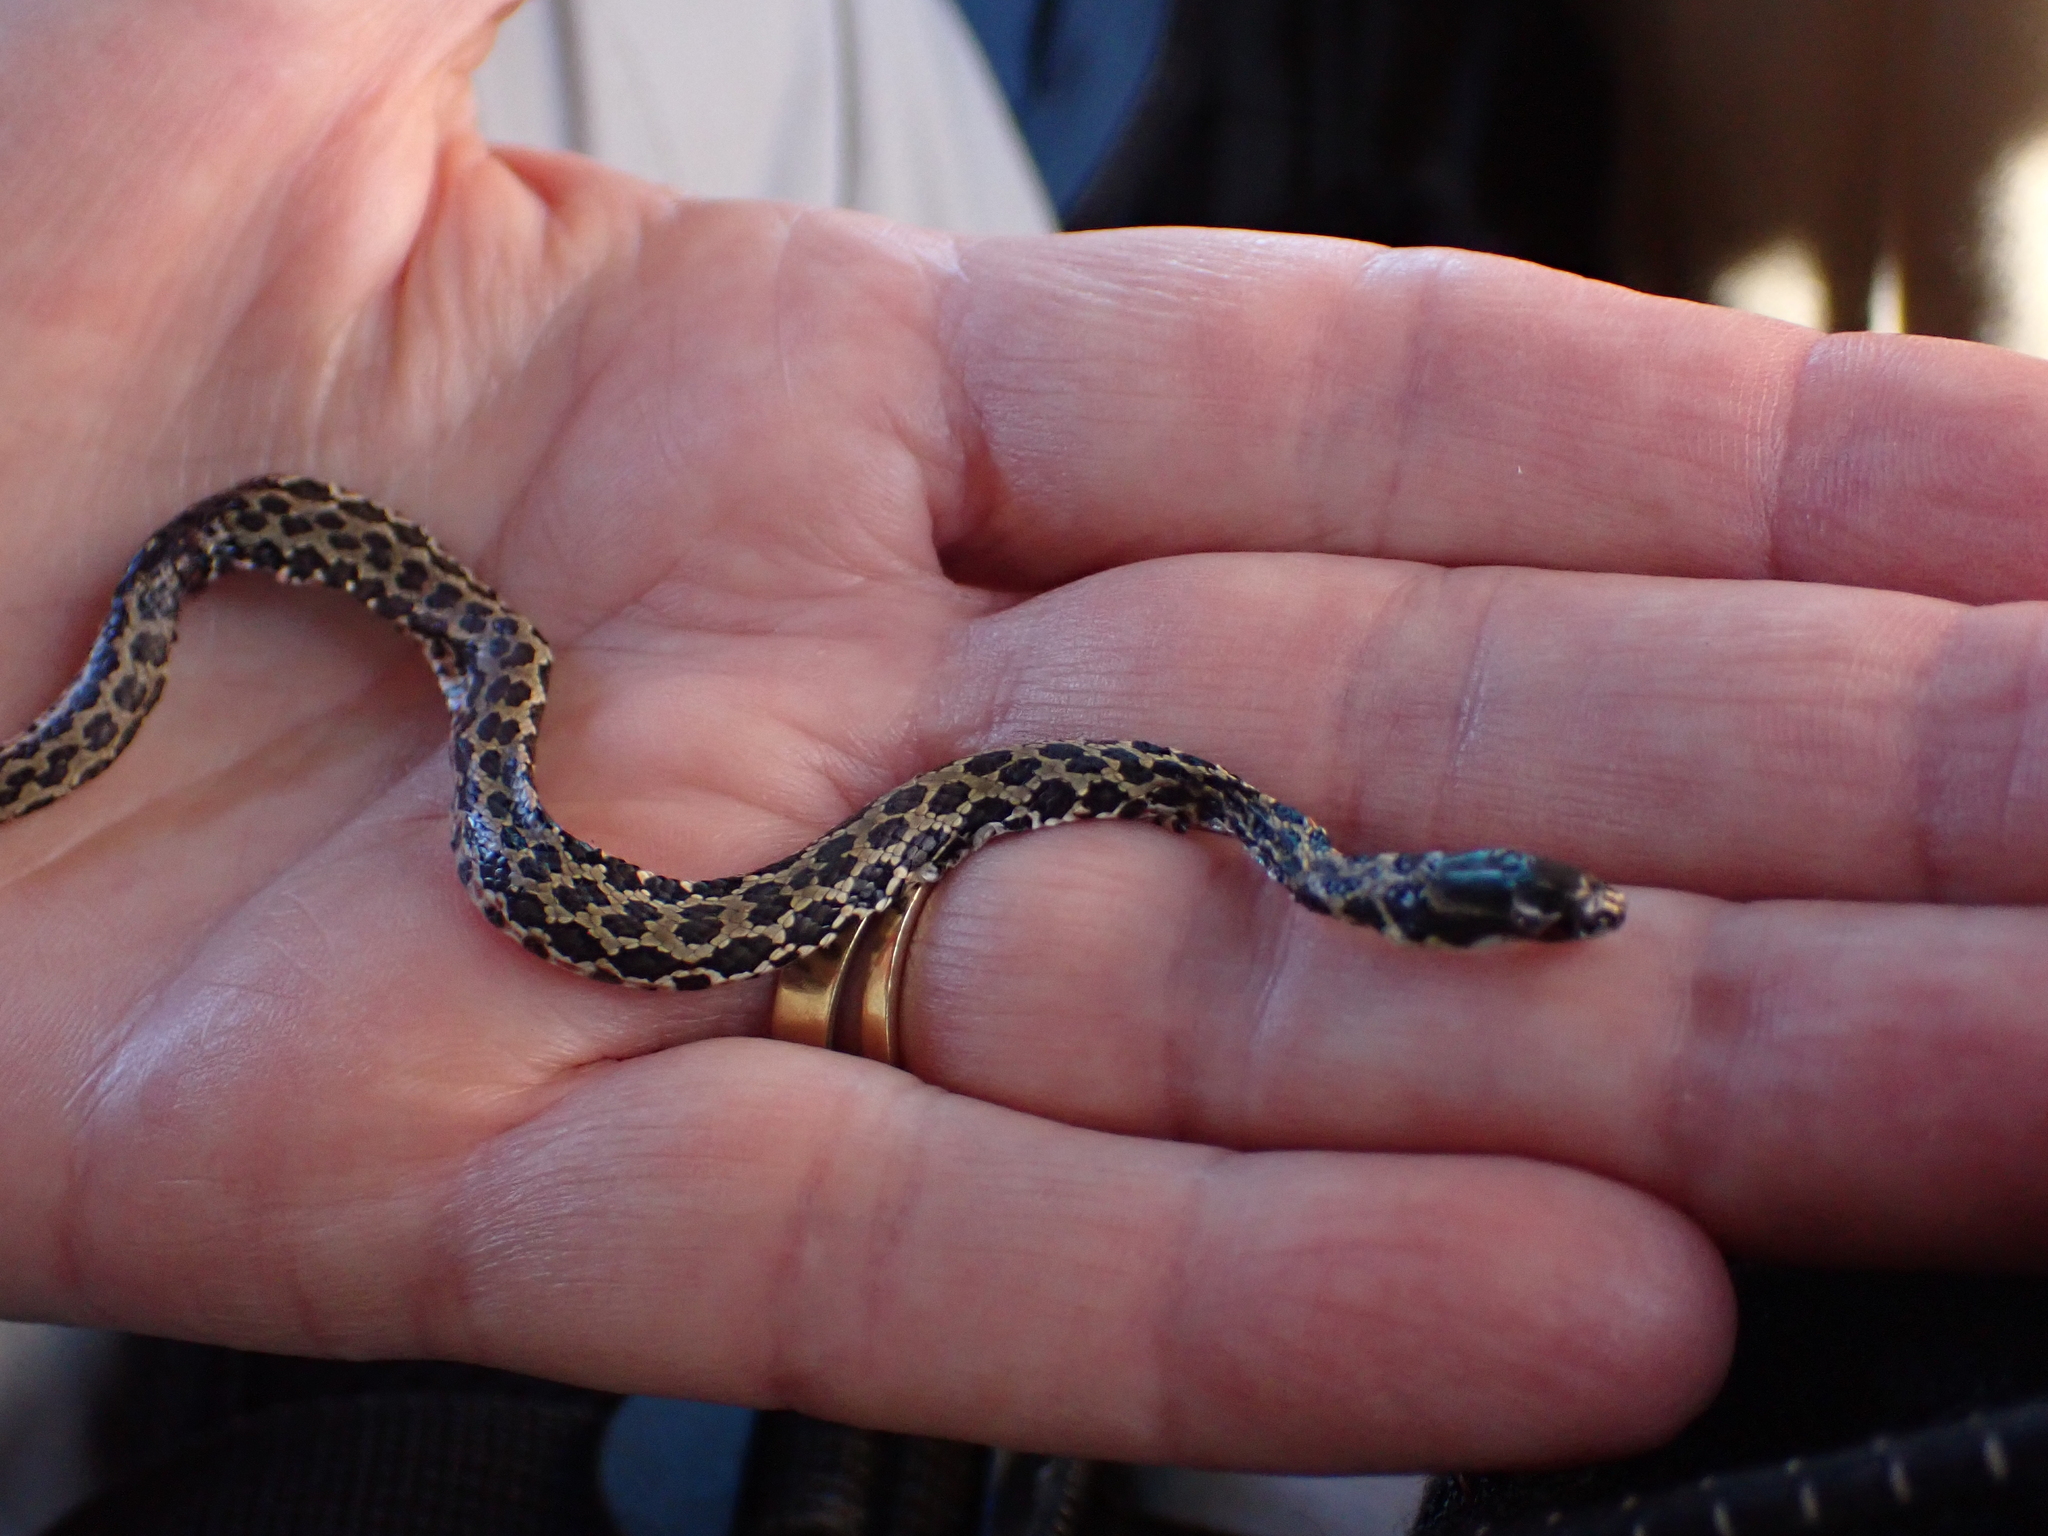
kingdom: Animalia
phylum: Chordata
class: Squamata
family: Psammophiidae
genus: Psammophylax
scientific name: Psammophylax rhombeatus
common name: Rhombic skaapsteker
